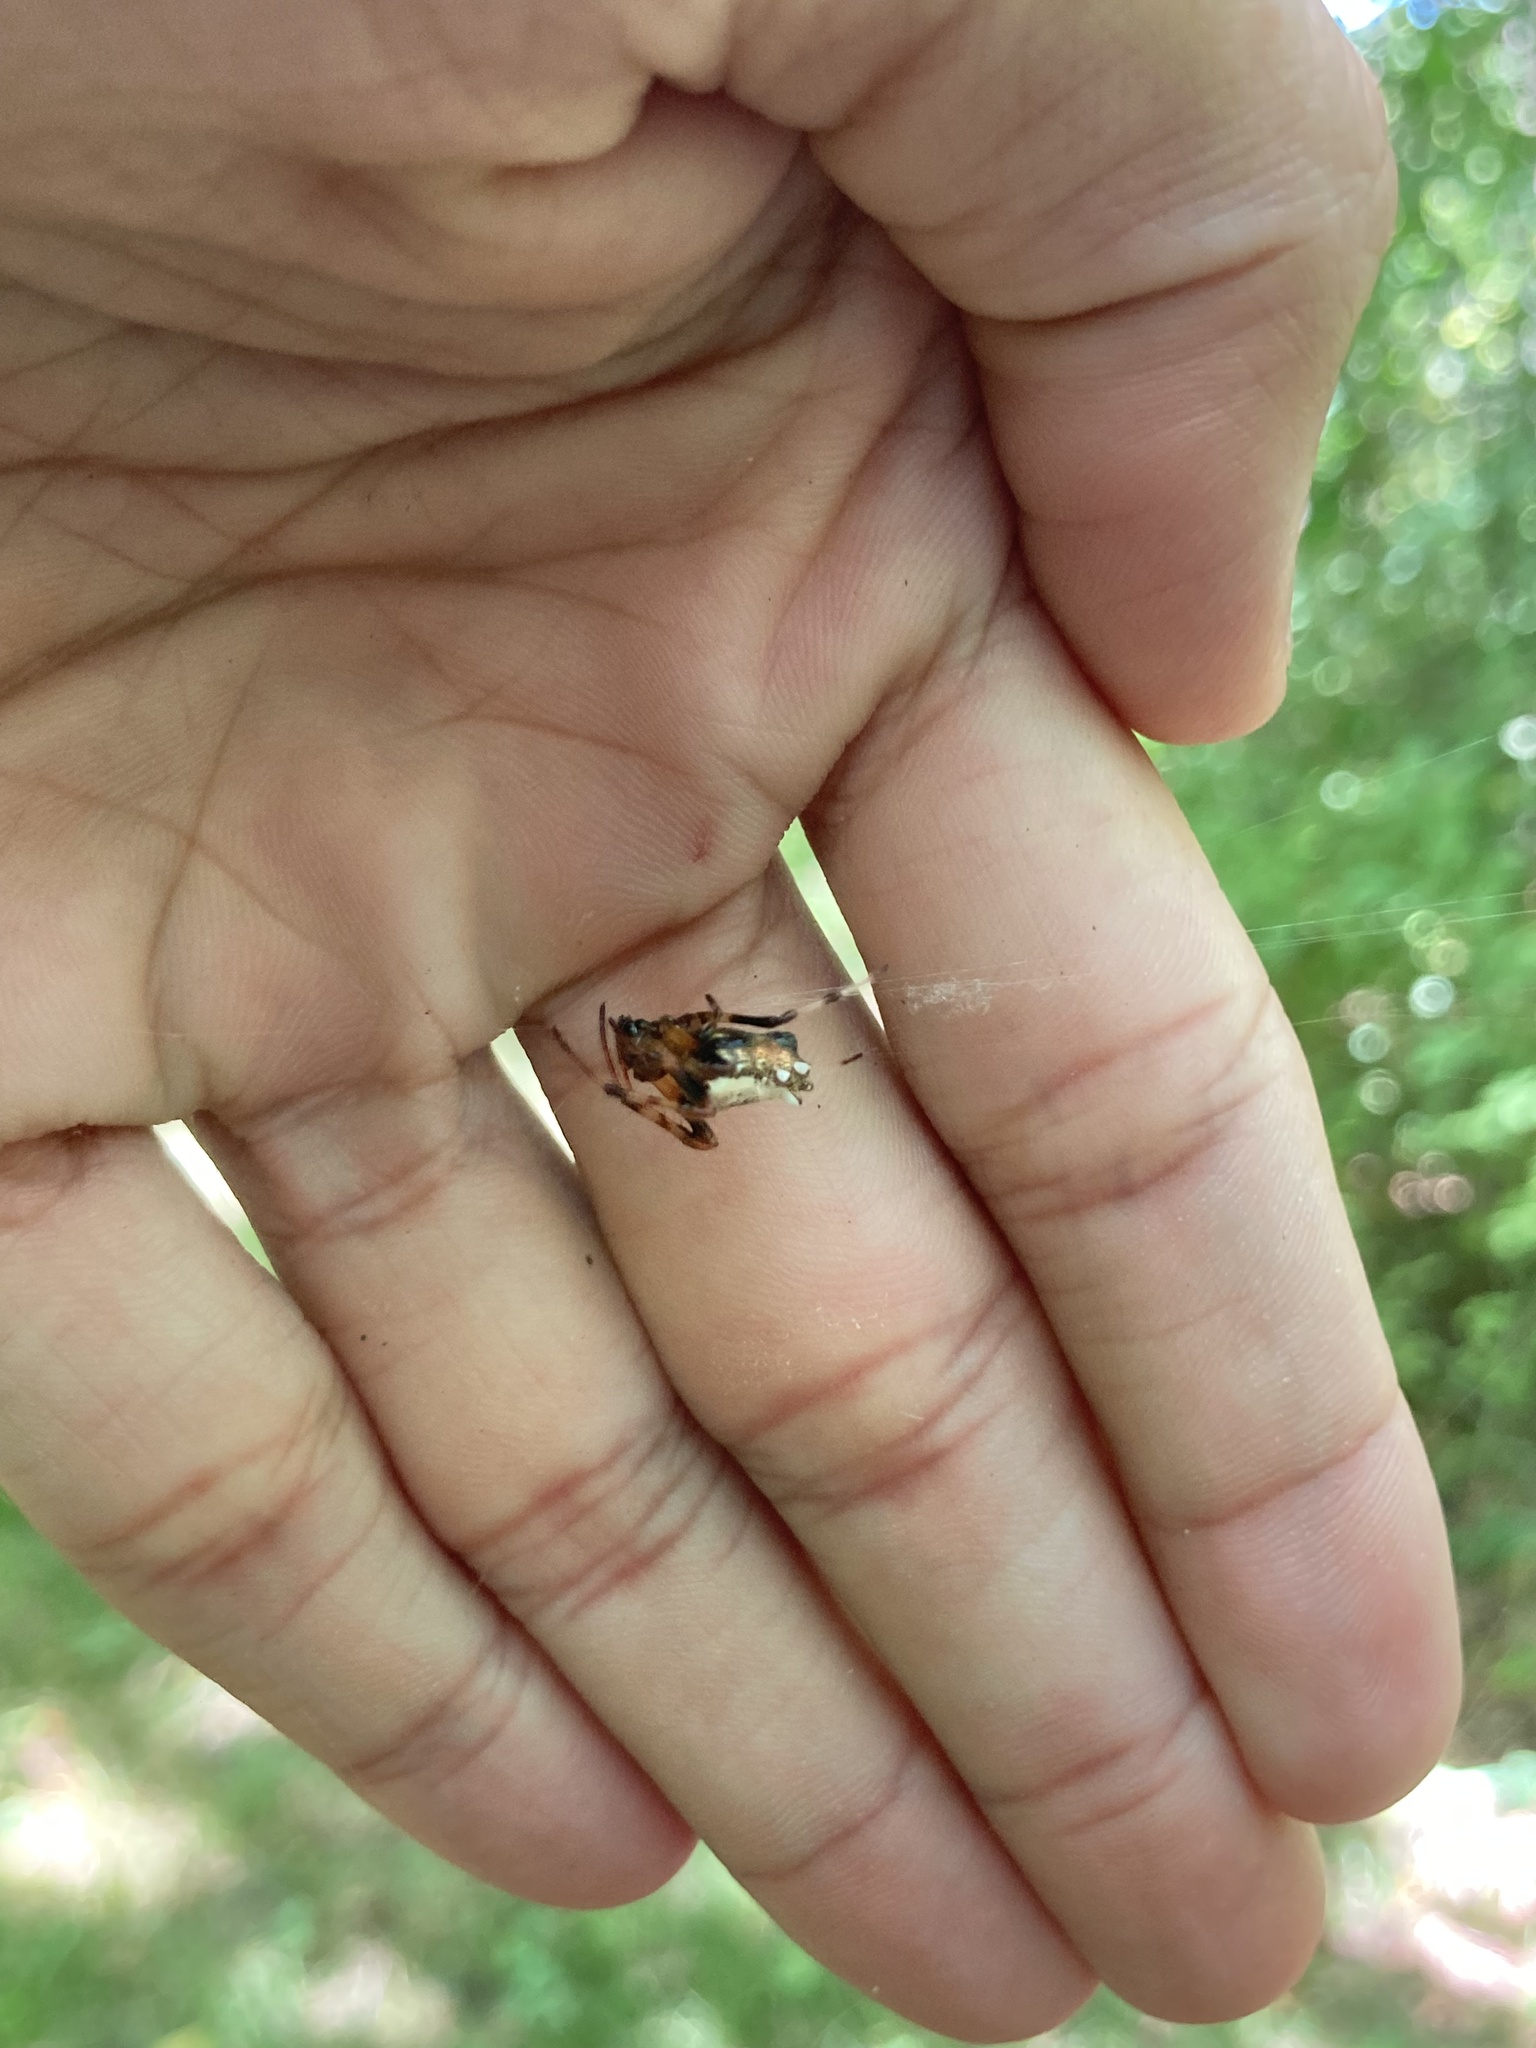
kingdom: Animalia
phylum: Arthropoda
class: Arachnida
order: Araneae
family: Araneidae
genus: Verrucosa
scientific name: Verrucosa arenata
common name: Orb weavers
